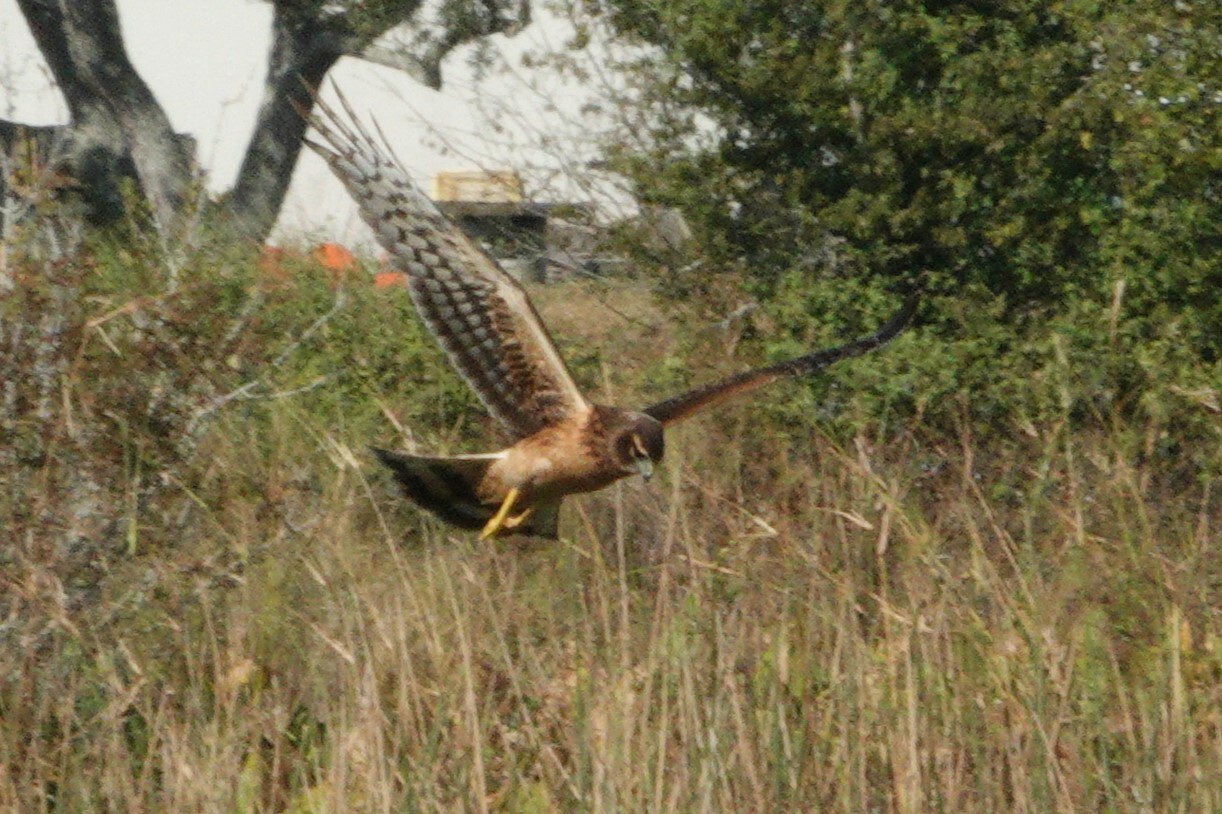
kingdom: Animalia
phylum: Chordata
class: Aves
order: Accipitriformes
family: Accipitridae
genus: Circus
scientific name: Circus cyaneus
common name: Hen harrier
